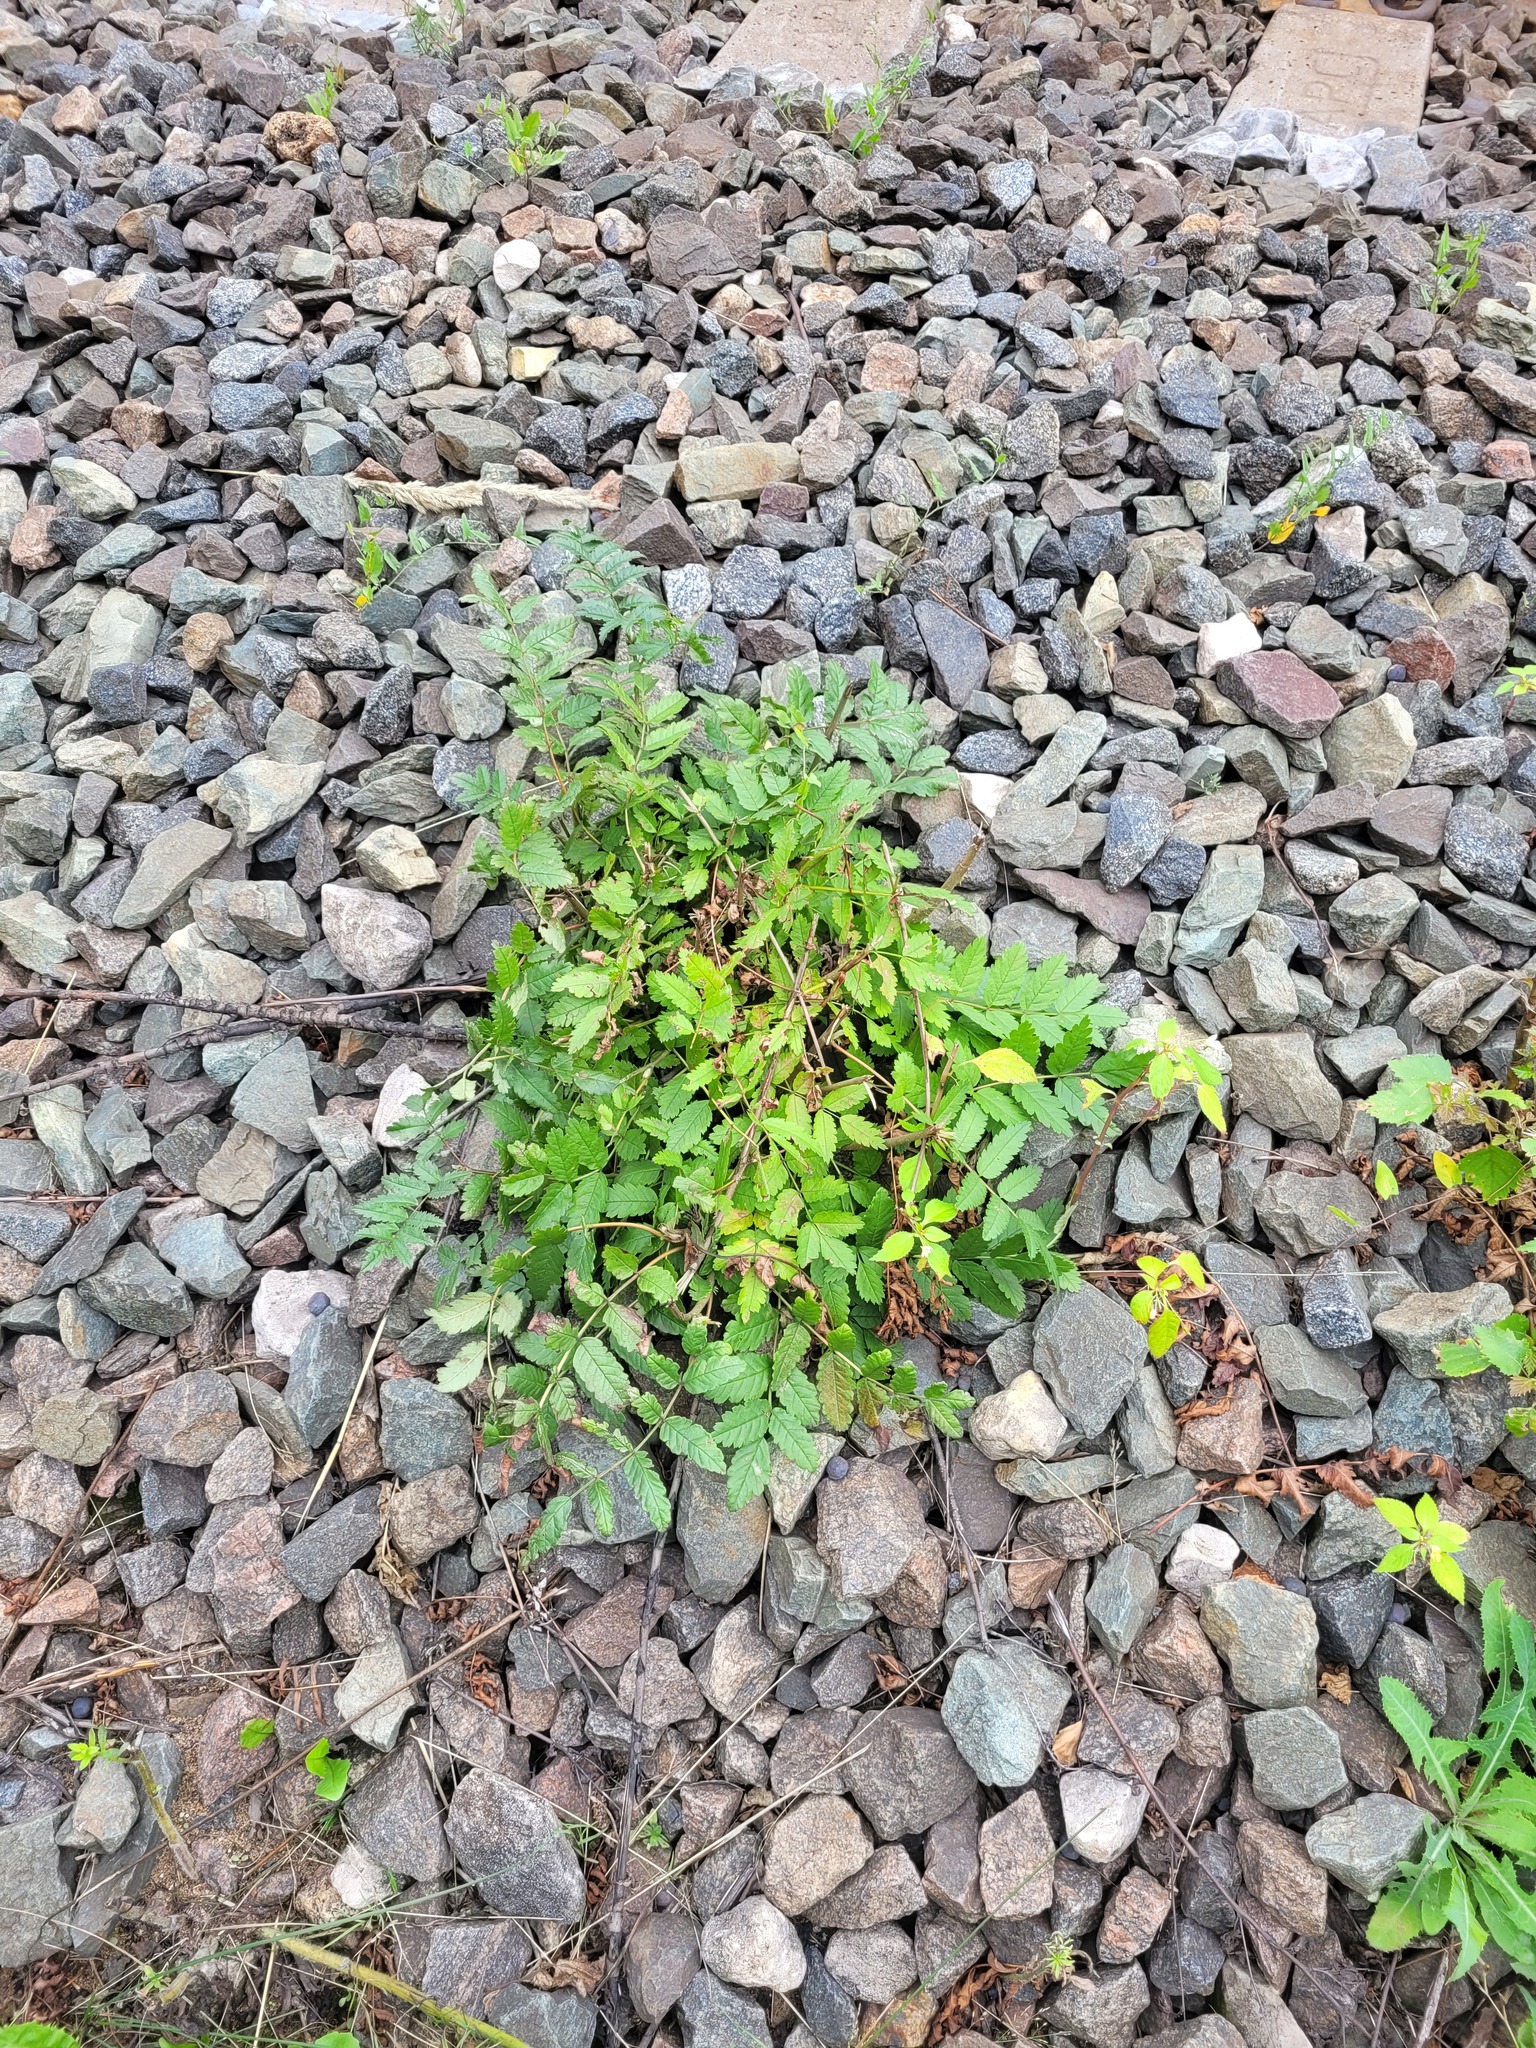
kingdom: Plantae
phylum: Tracheophyta
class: Magnoliopsida
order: Rosales
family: Rosaceae
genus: Sorbus
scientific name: Sorbus aucuparia
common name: Rowan
